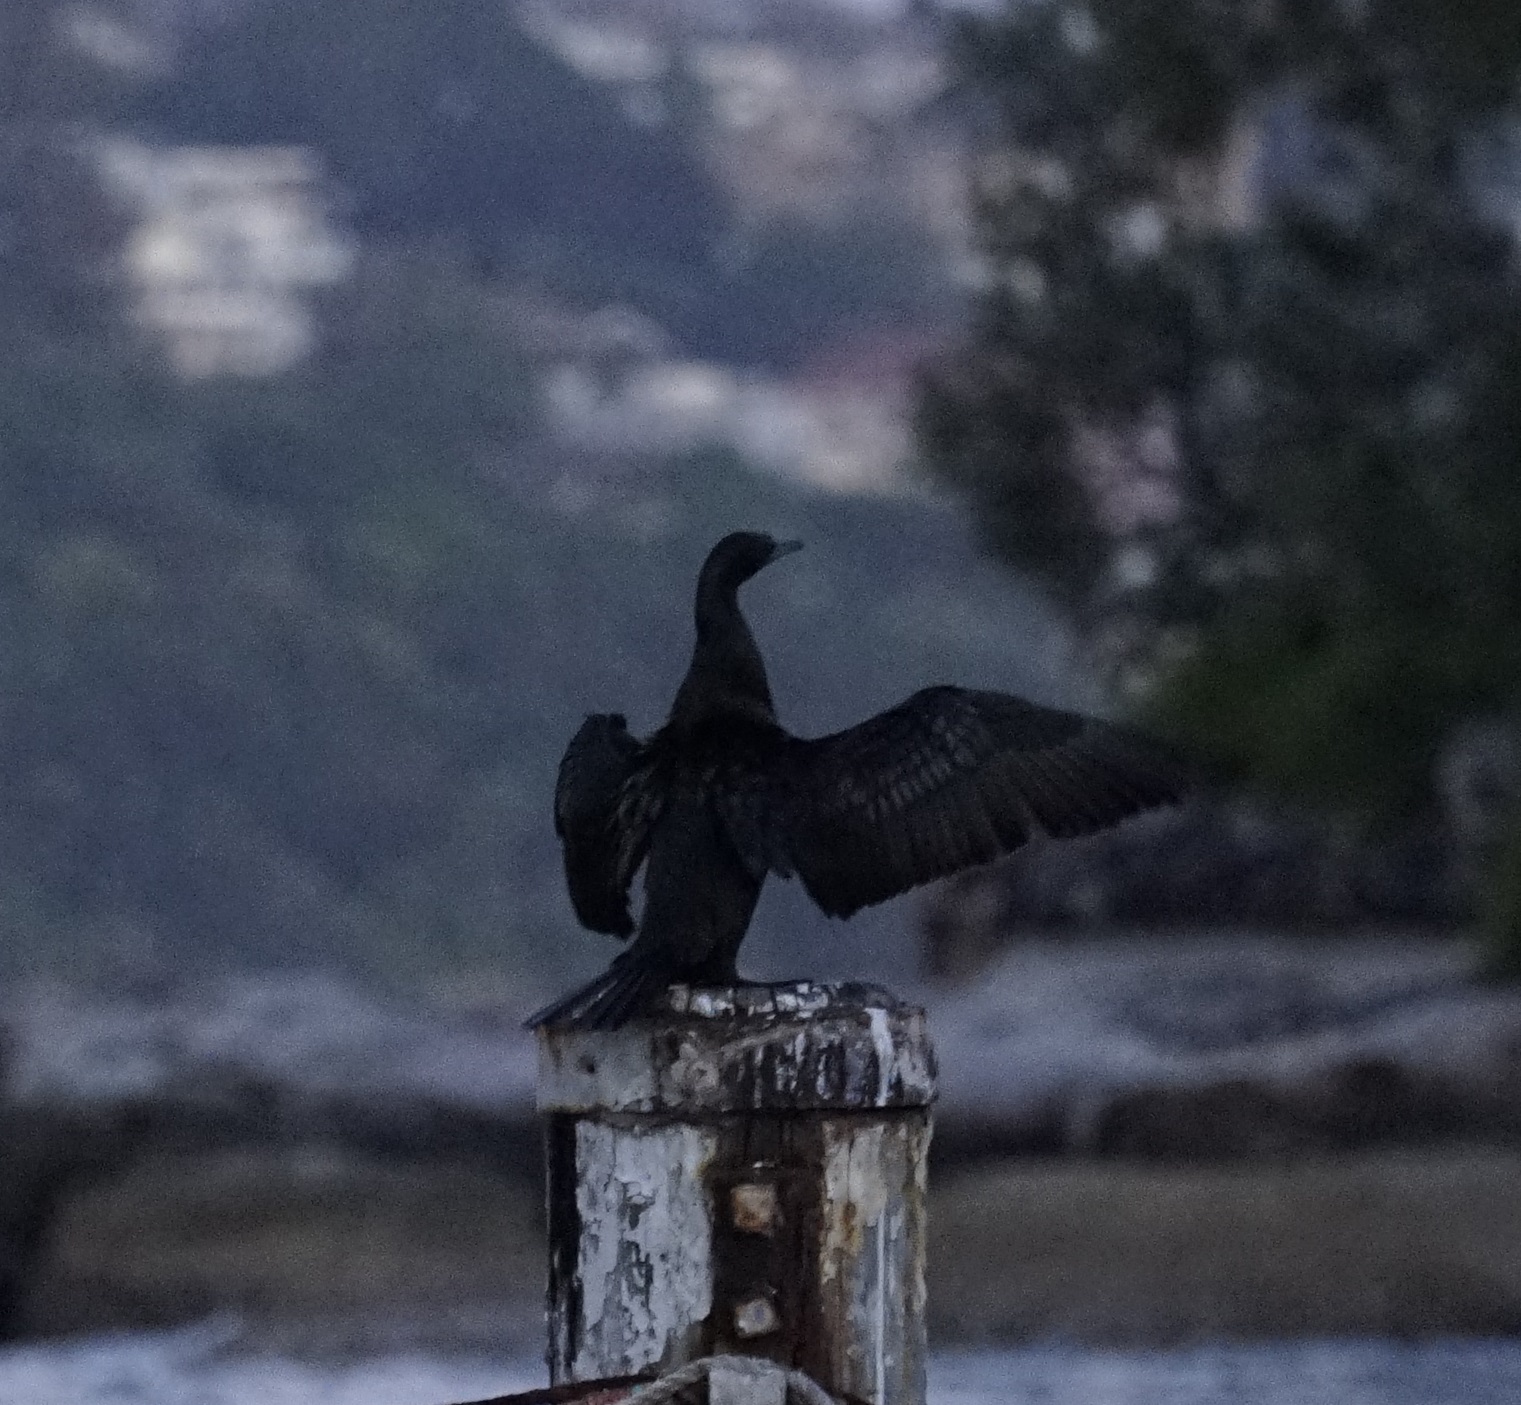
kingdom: Animalia
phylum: Chordata
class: Aves
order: Suliformes
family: Phalacrocoracidae
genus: Phalacrocorax
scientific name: Phalacrocorax sulcirostris
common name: Little black cormorant
